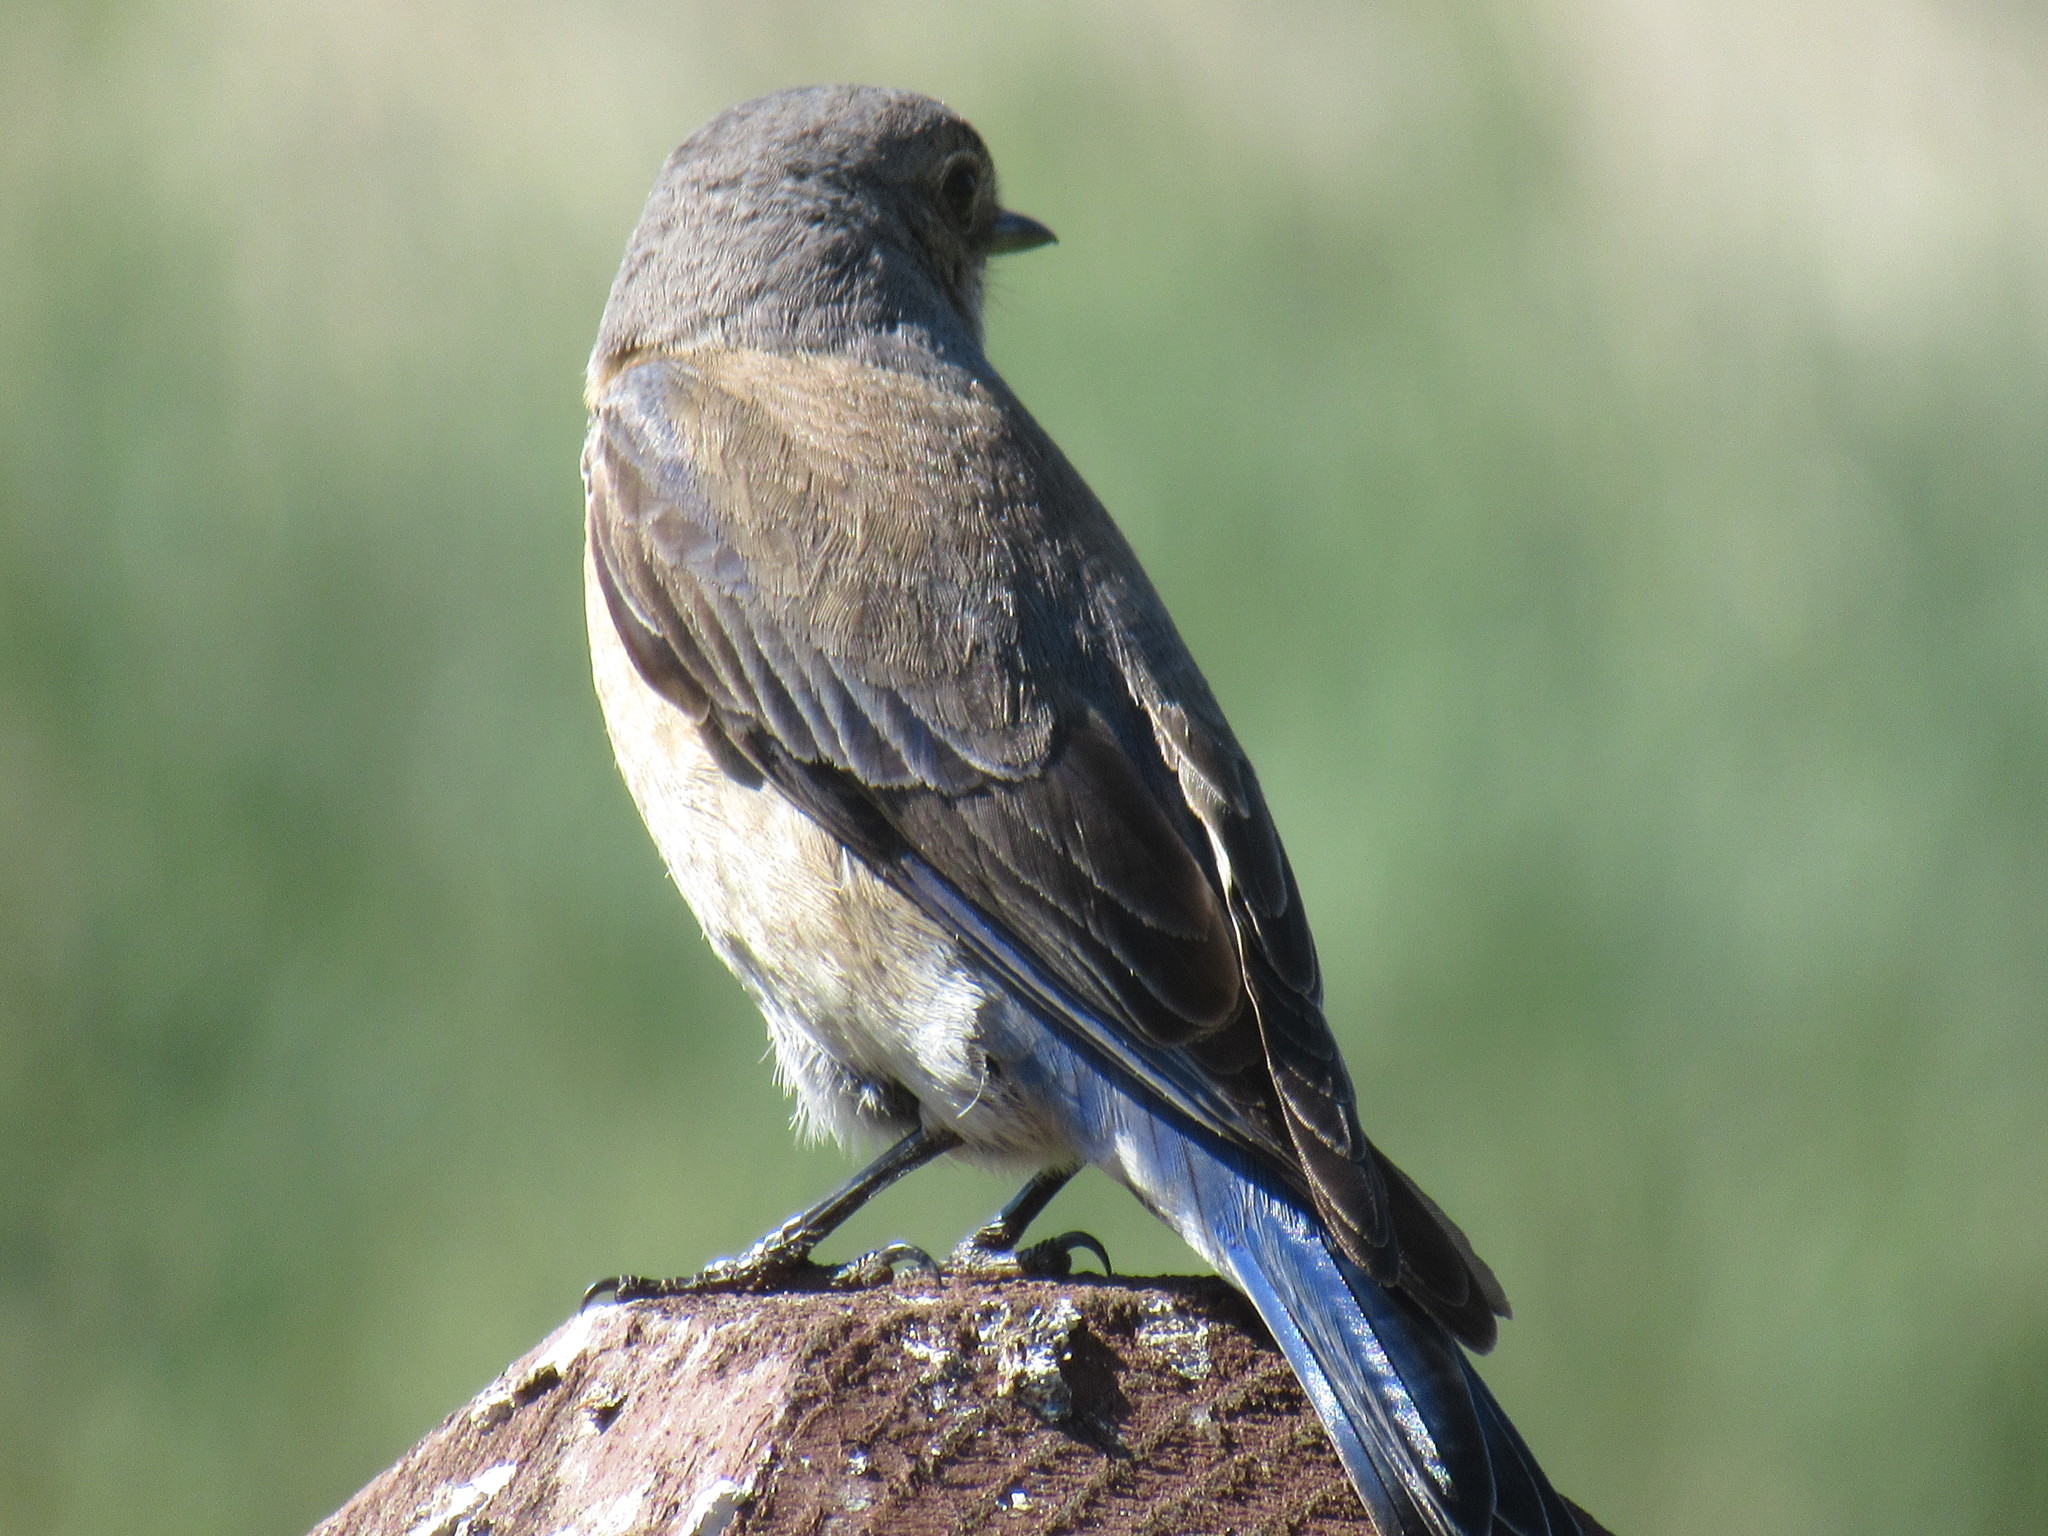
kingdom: Animalia
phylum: Chordata
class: Aves
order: Passeriformes
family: Turdidae
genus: Sialia
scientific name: Sialia mexicana
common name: Western bluebird
